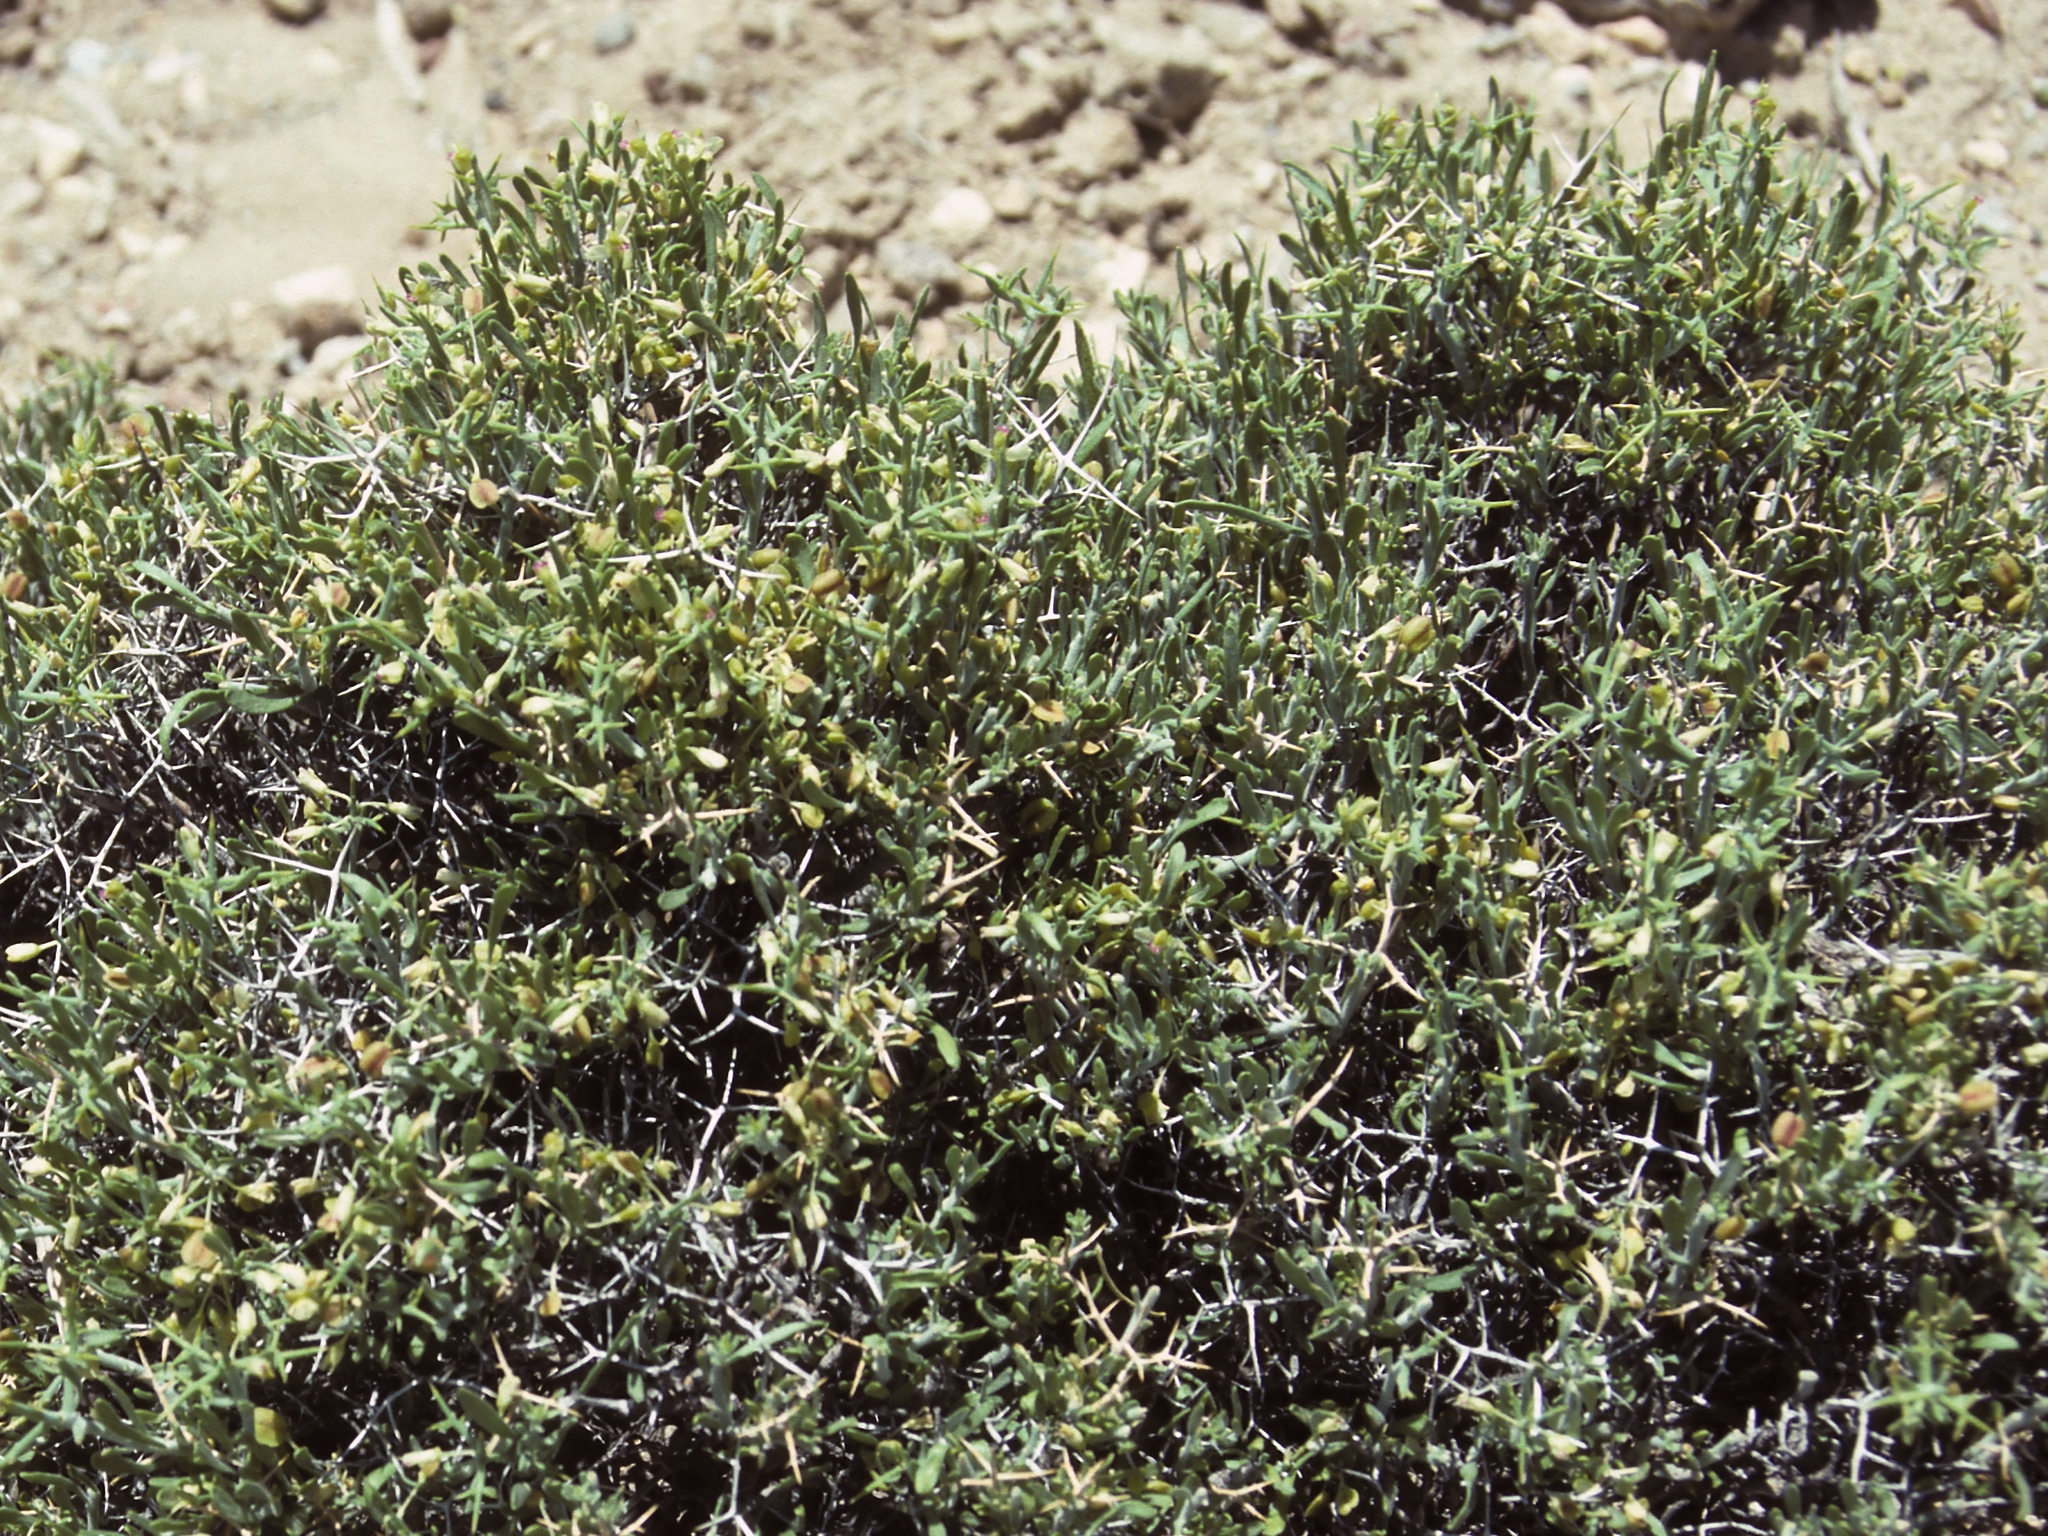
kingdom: Plantae
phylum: Tracheophyta
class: Magnoliopsida
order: Fabales
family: Polygalaceae
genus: Rhinotropis
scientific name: Rhinotropis intermontana
